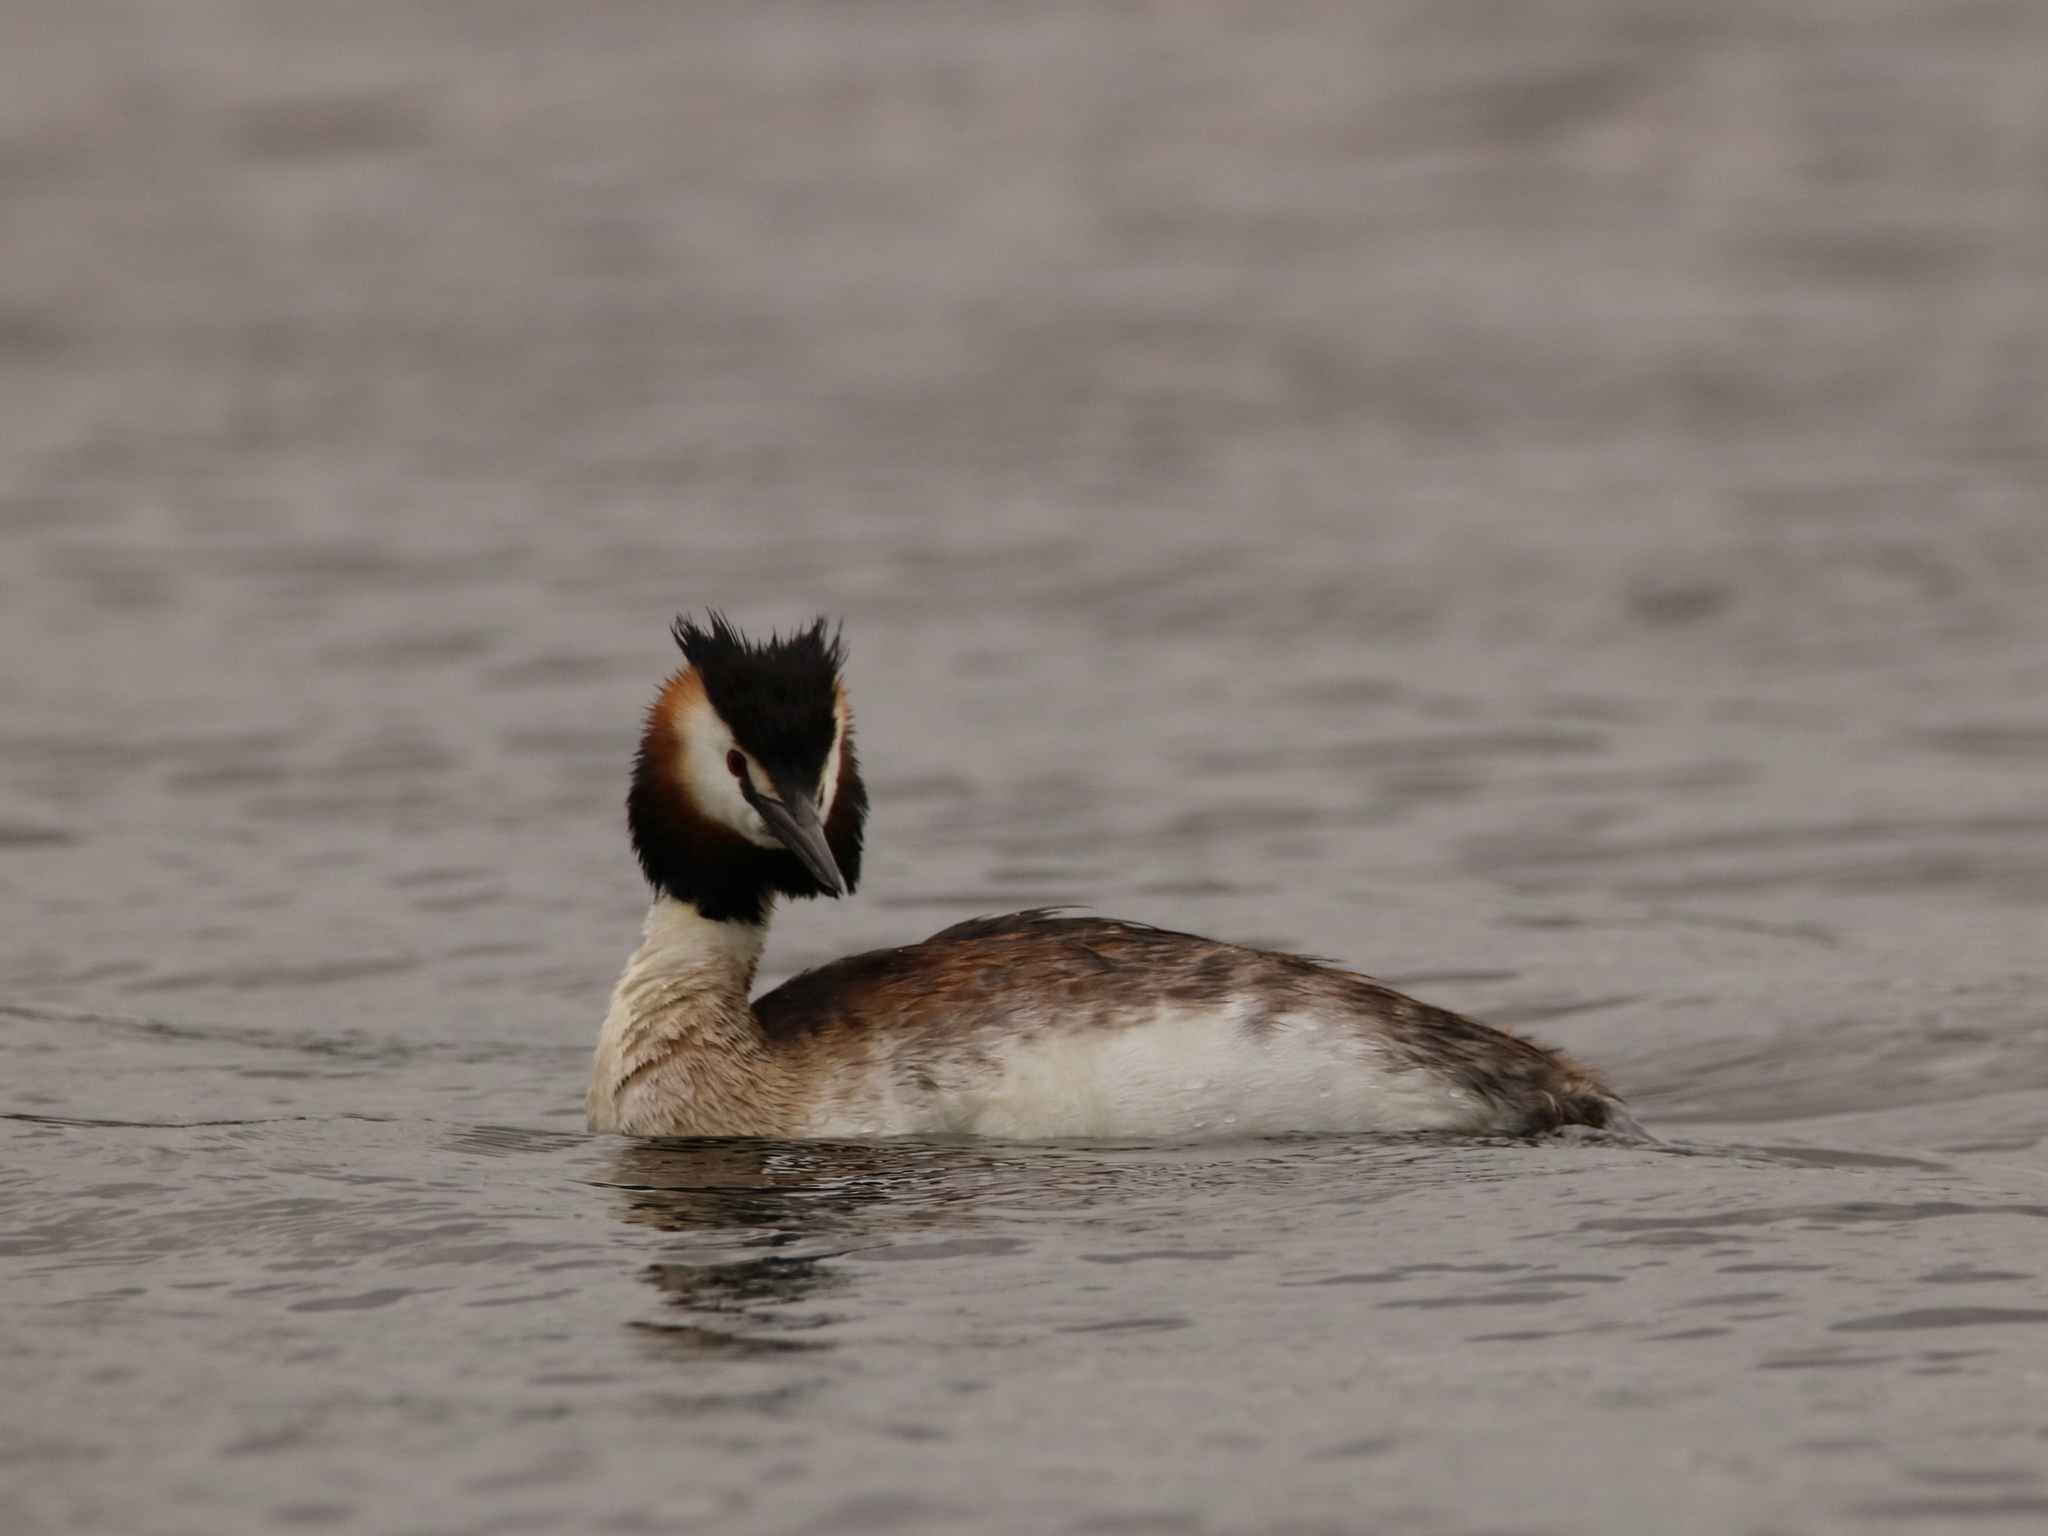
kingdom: Animalia
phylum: Chordata
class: Aves
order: Podicipediformes
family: Podicipedidae
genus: Podiceps
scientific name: Podiceps cristatus
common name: Great crested grebe
